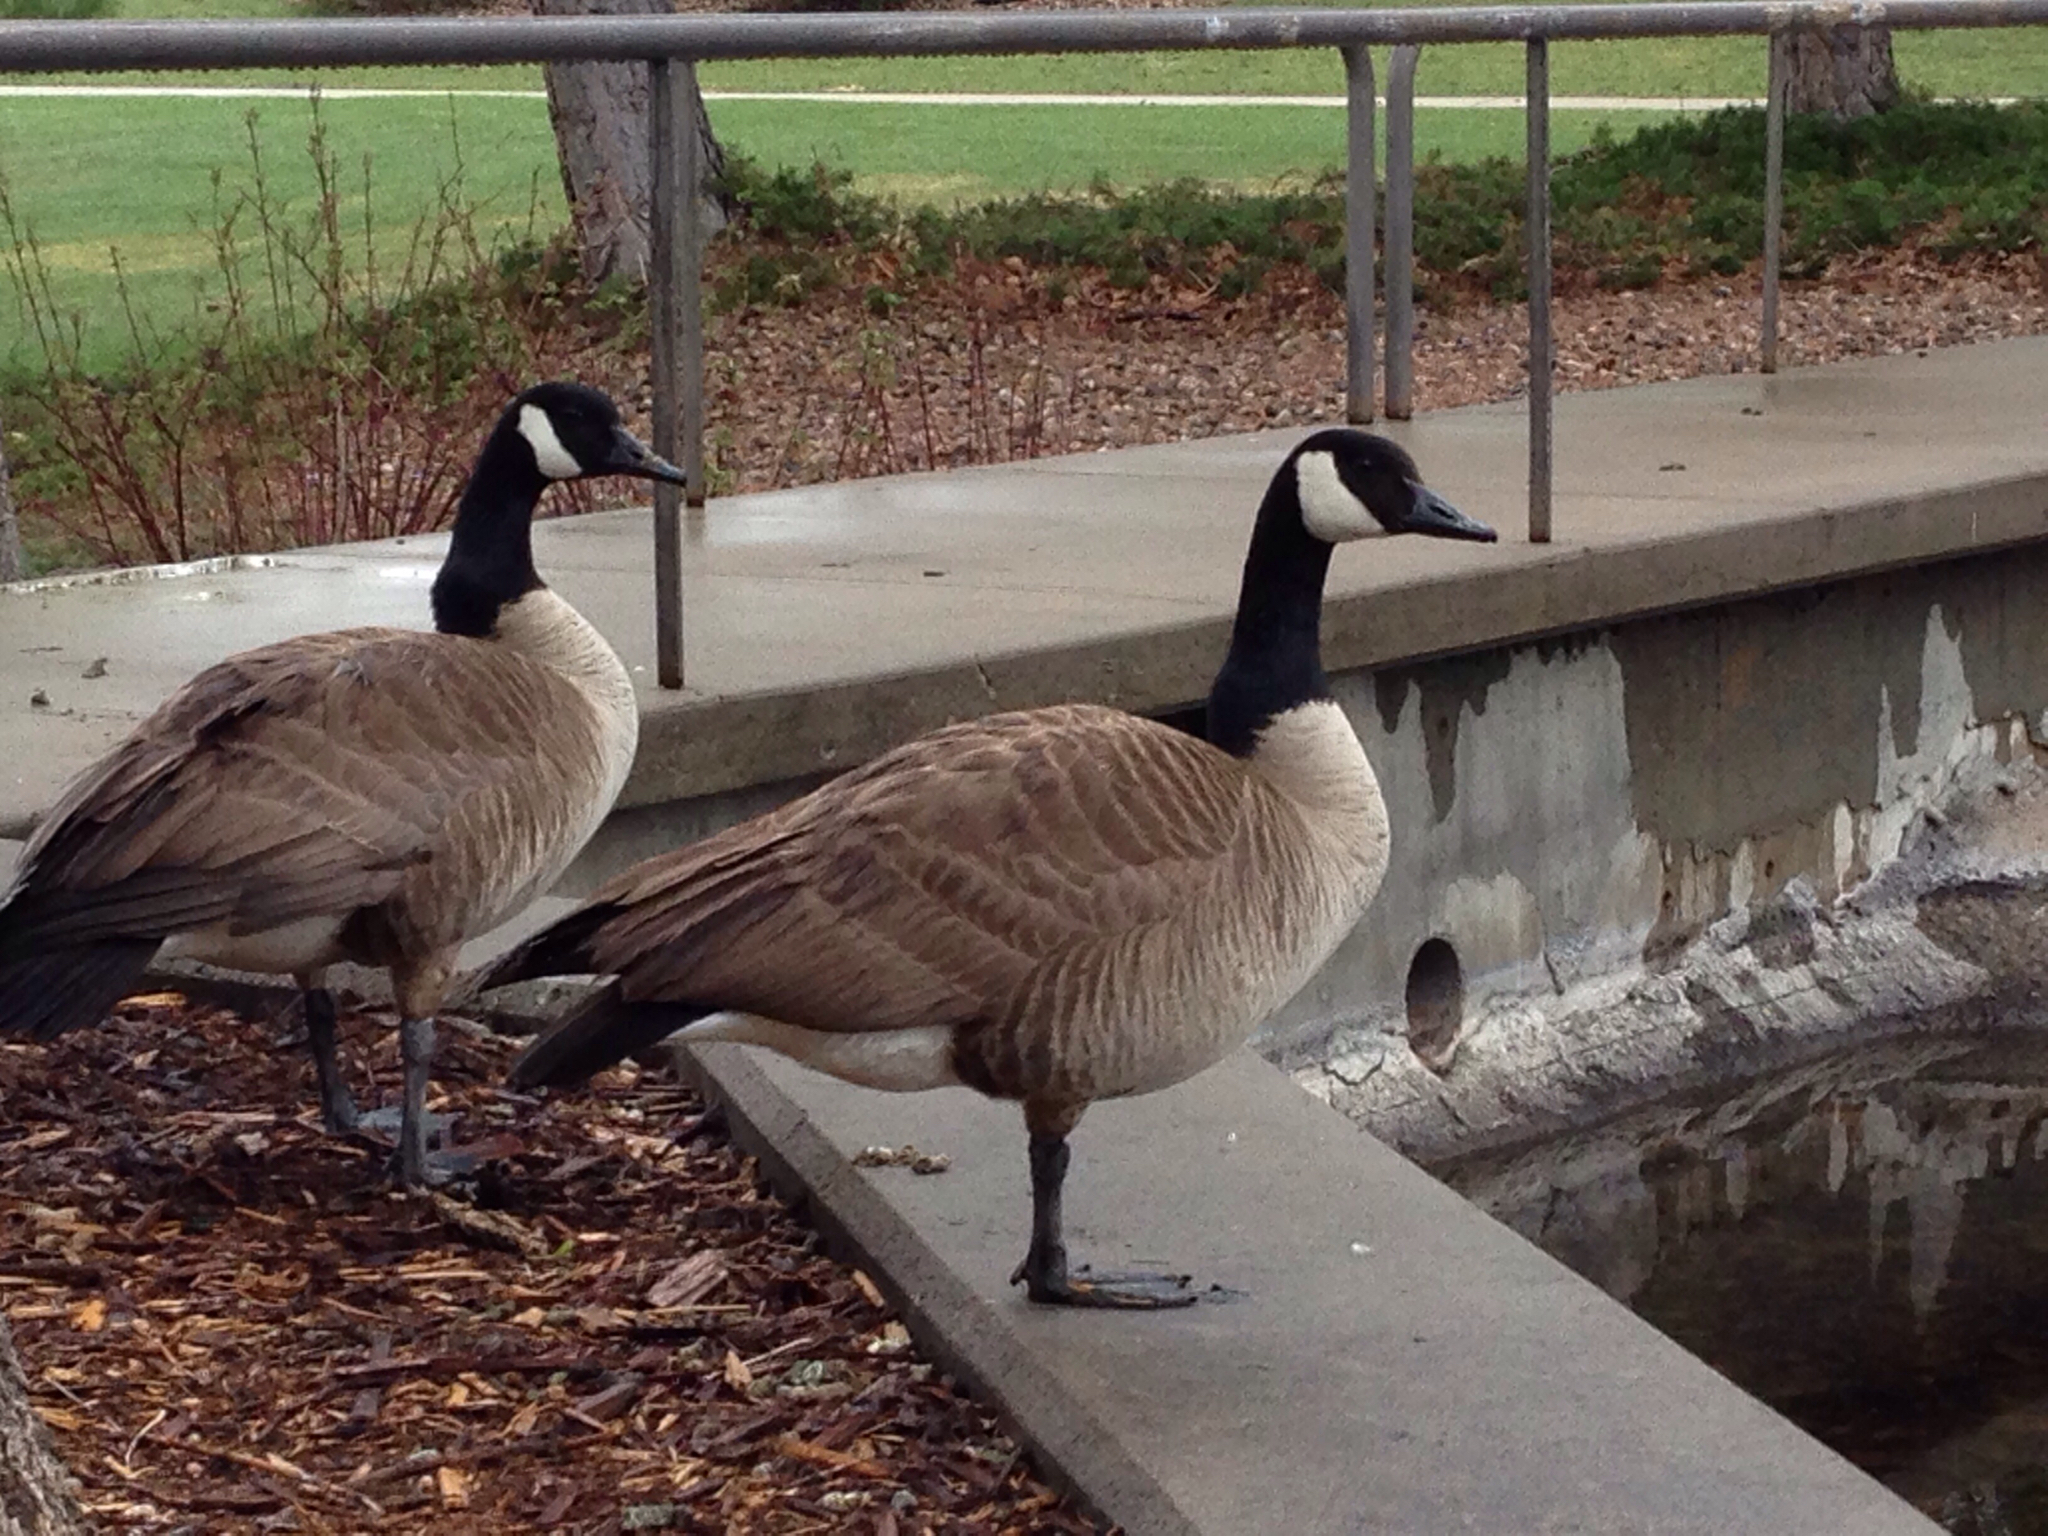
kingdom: Animalia
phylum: Chordata
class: Aves
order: Anseriformes
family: Anatidae
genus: Branta
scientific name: Branta canadensis
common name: Canada goose
